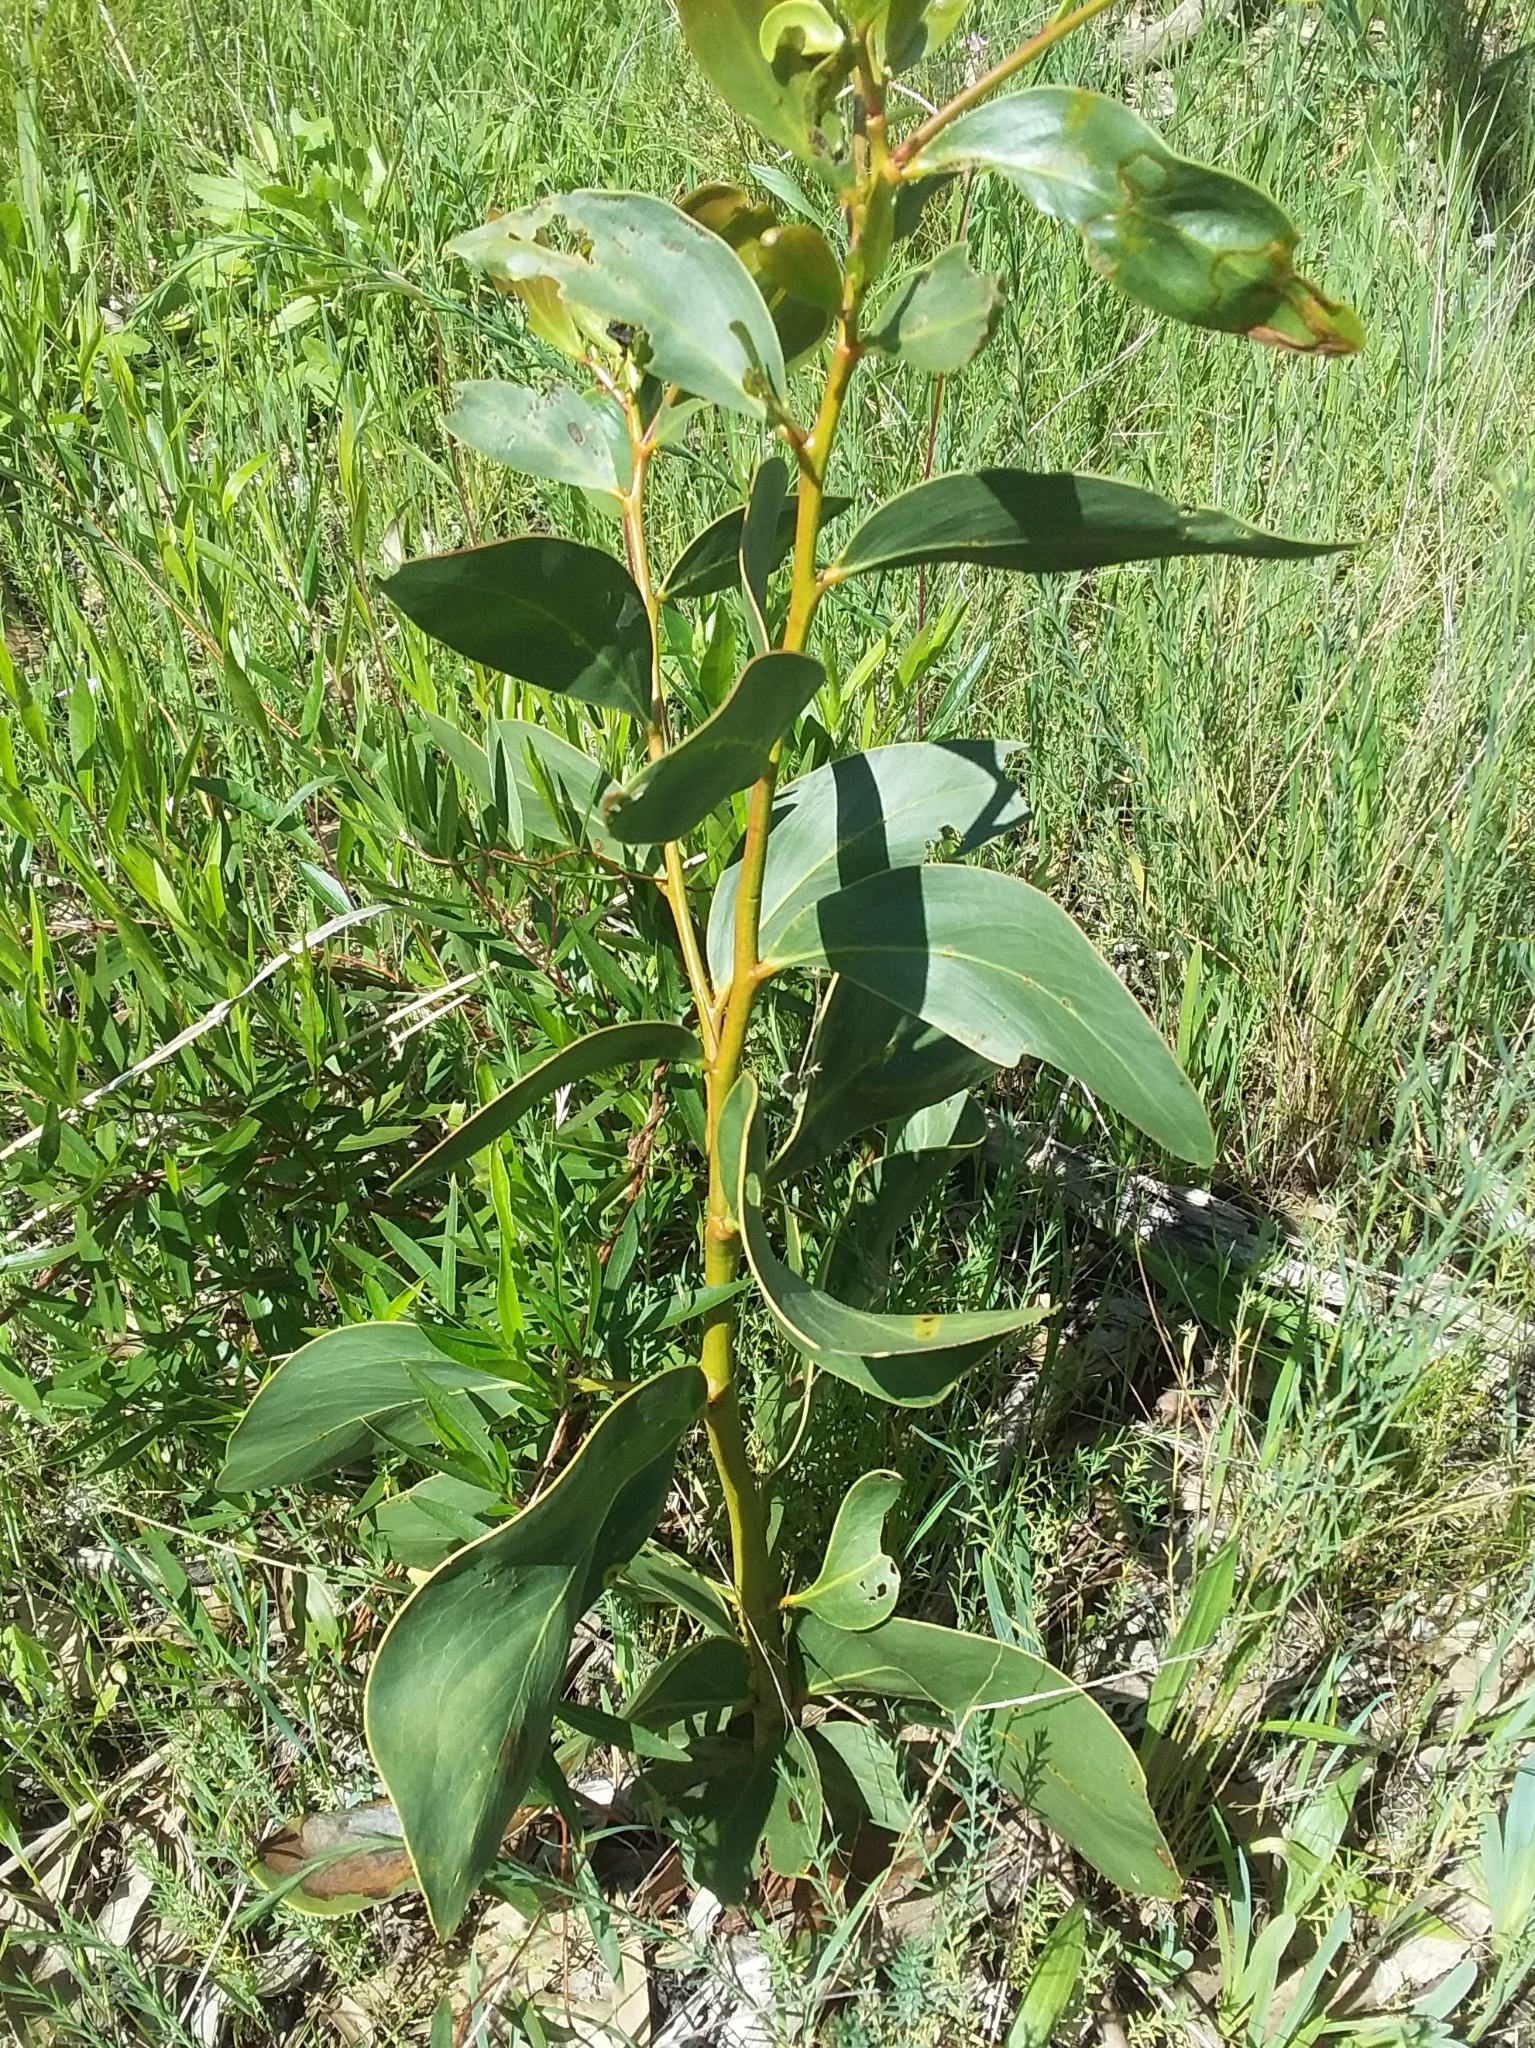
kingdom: Plantae
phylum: Tracheophyta
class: Magnoliopsida
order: Fabales
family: Fabaceae
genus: Acacia
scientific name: Acacia pycnantha
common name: Golden wattle
